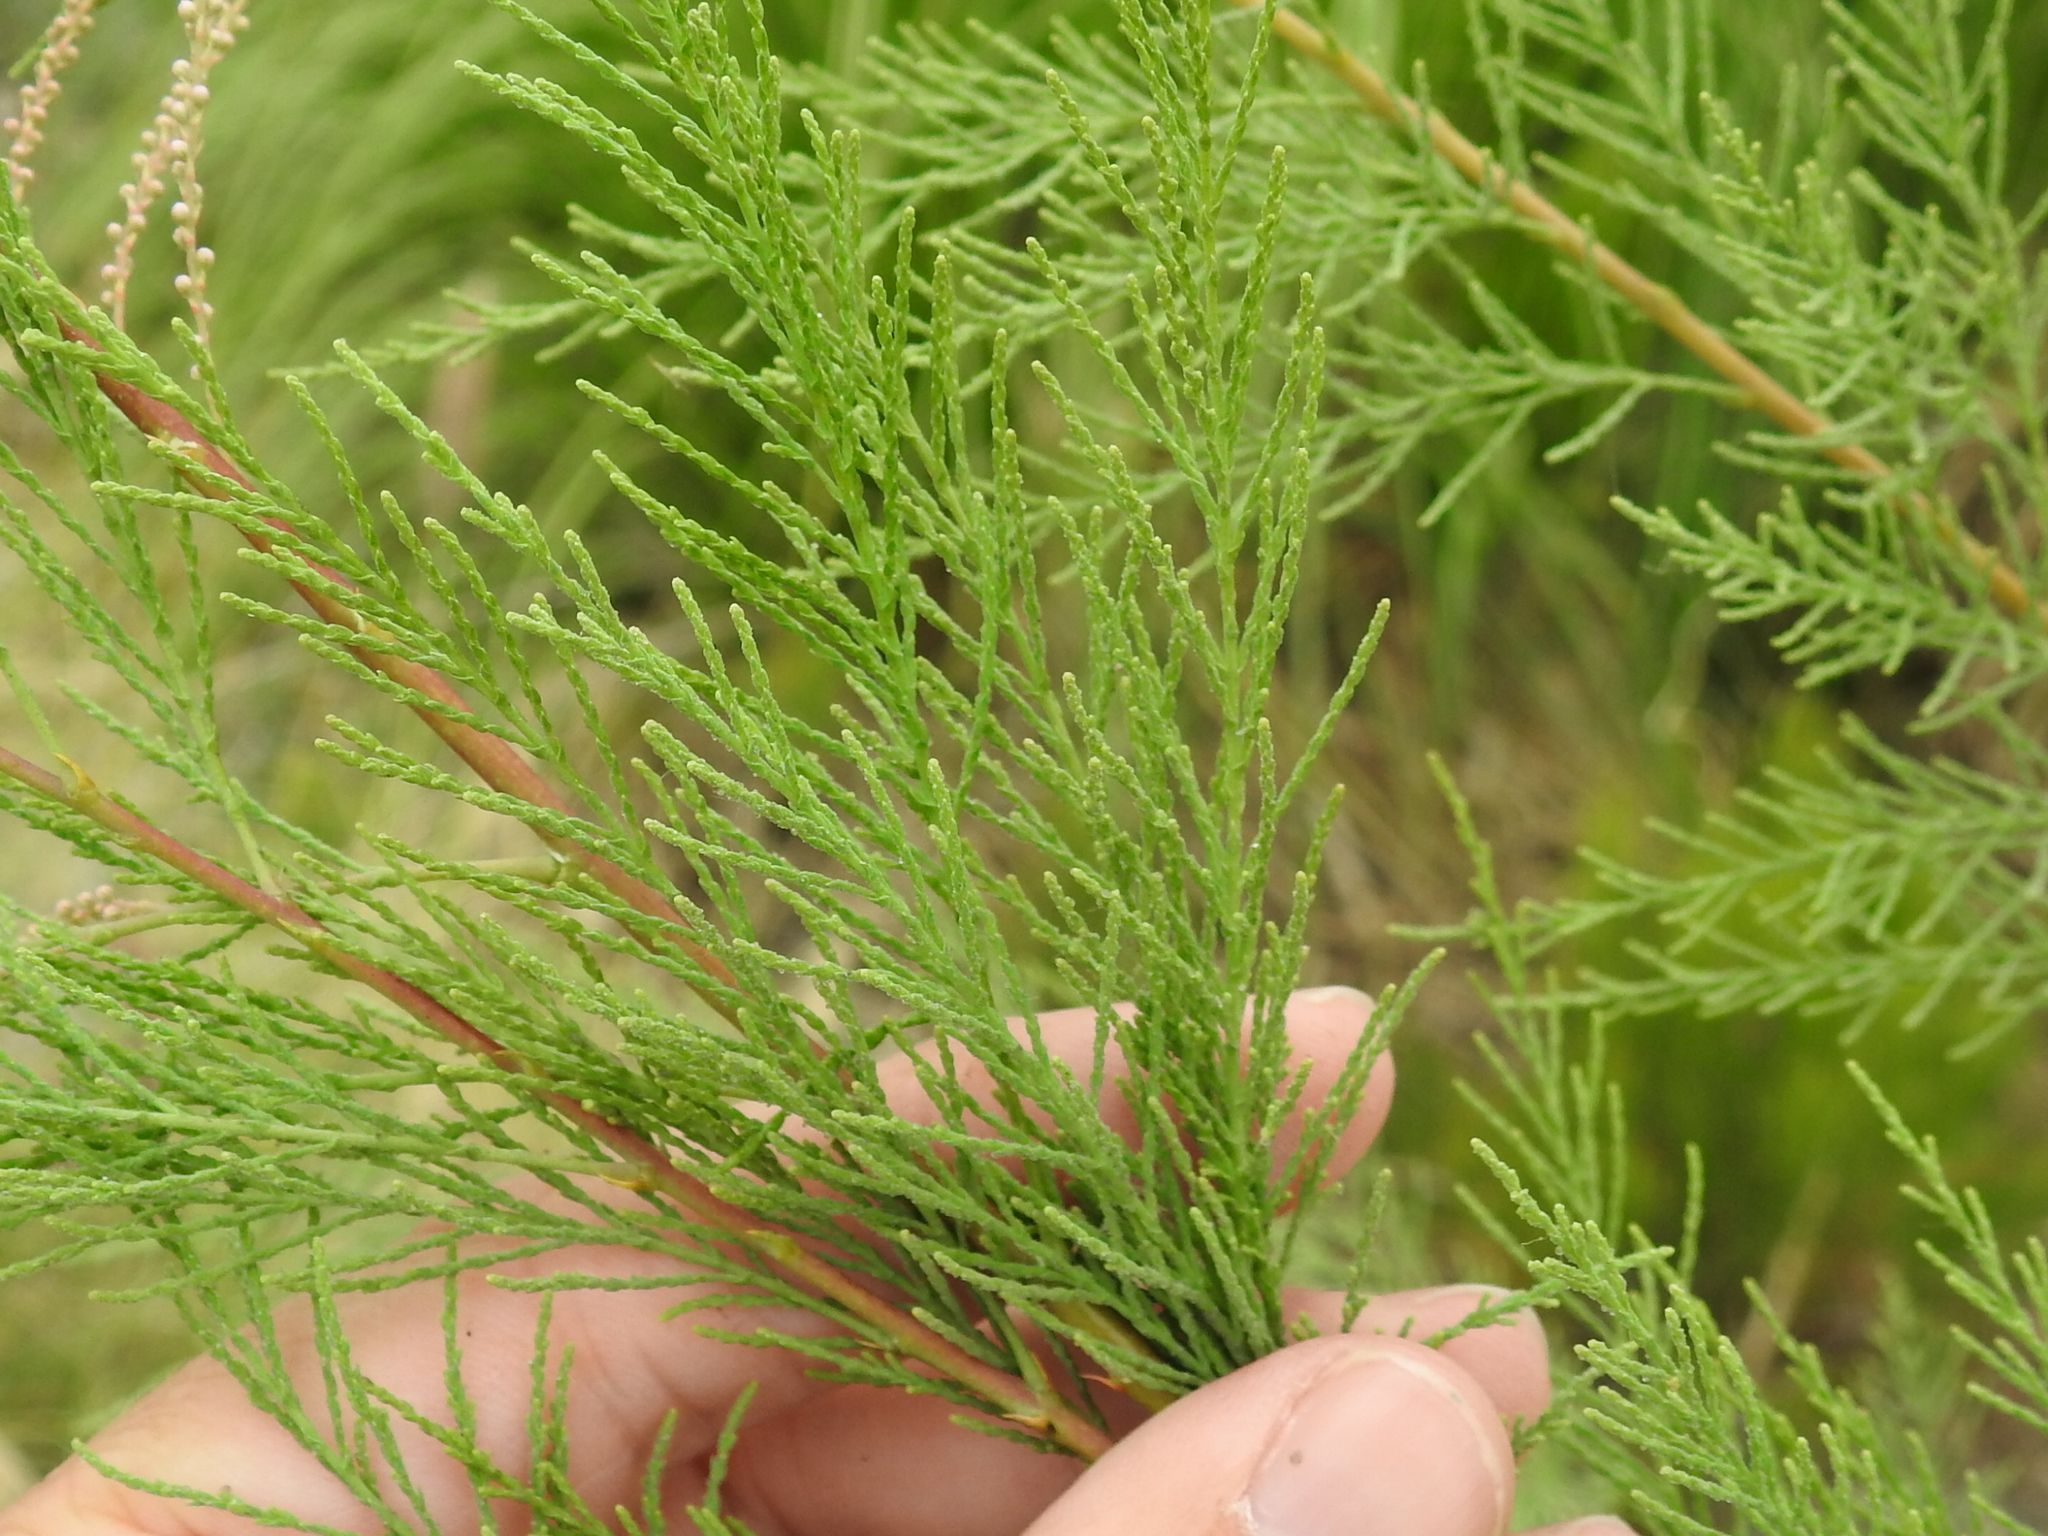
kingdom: Plantae
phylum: Tracheophyta
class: Magnoliopsida
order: Caryophyllales
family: Tamaricaceae
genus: Tamarix
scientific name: Tamarix ramosissima
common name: Pink tamarisk
